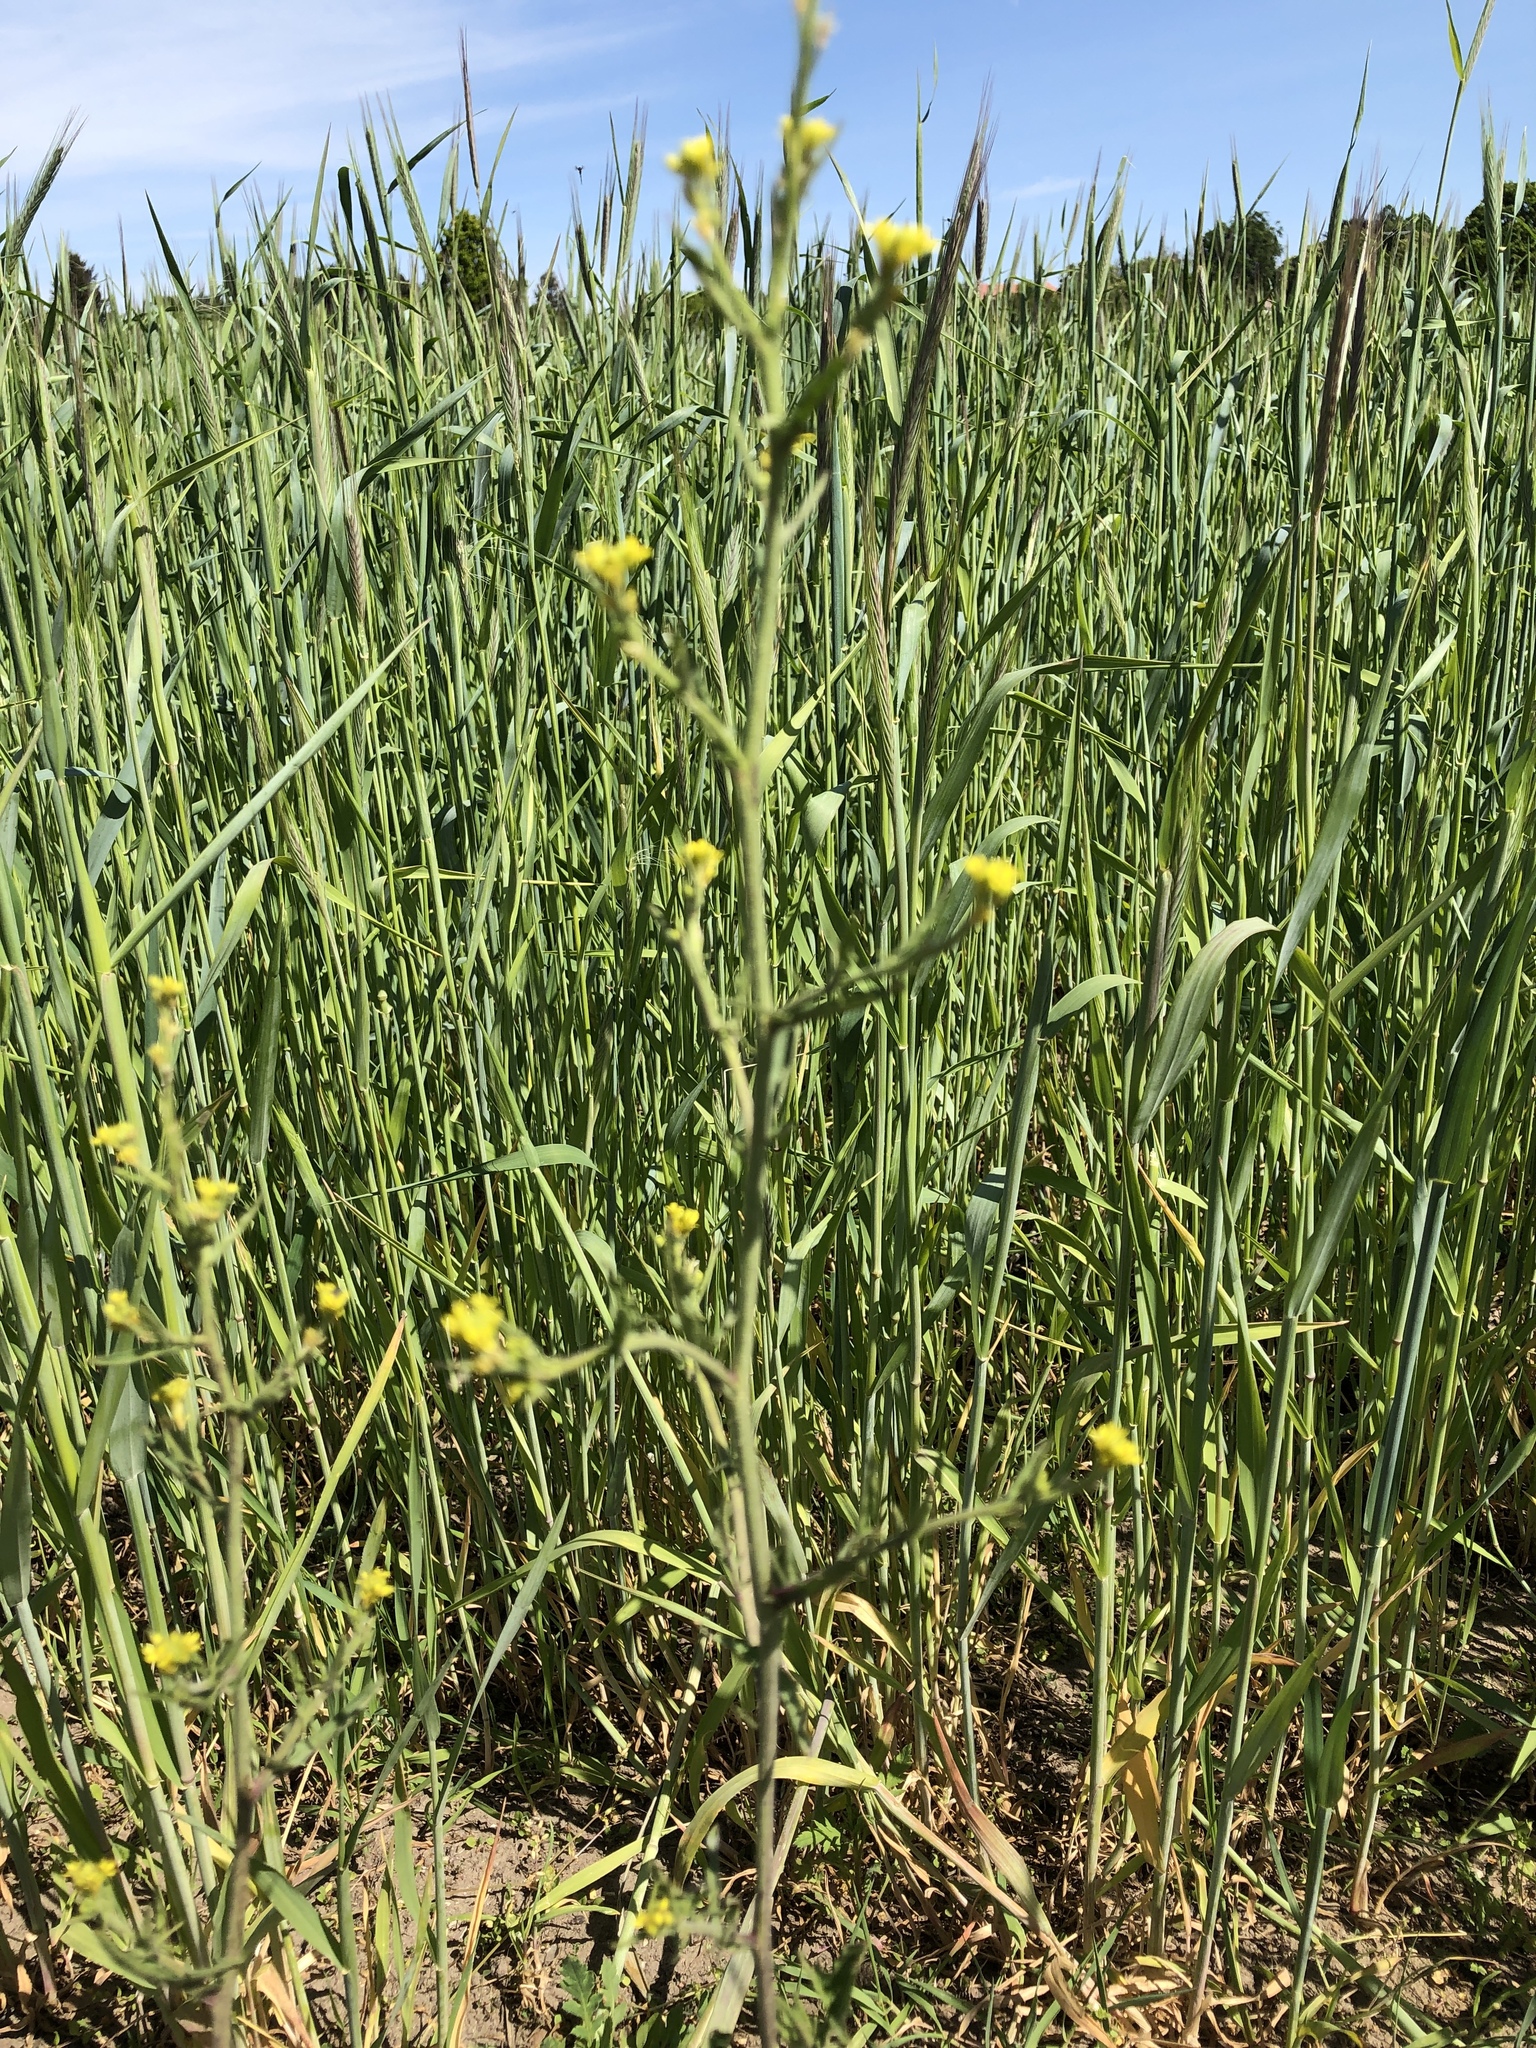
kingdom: Plantae
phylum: Tracheophyta
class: Magnoliopsida
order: Brassicales
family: Brassicaceae
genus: Sisymbrium
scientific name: Sisymbrium officinale
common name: Hedge mustard
